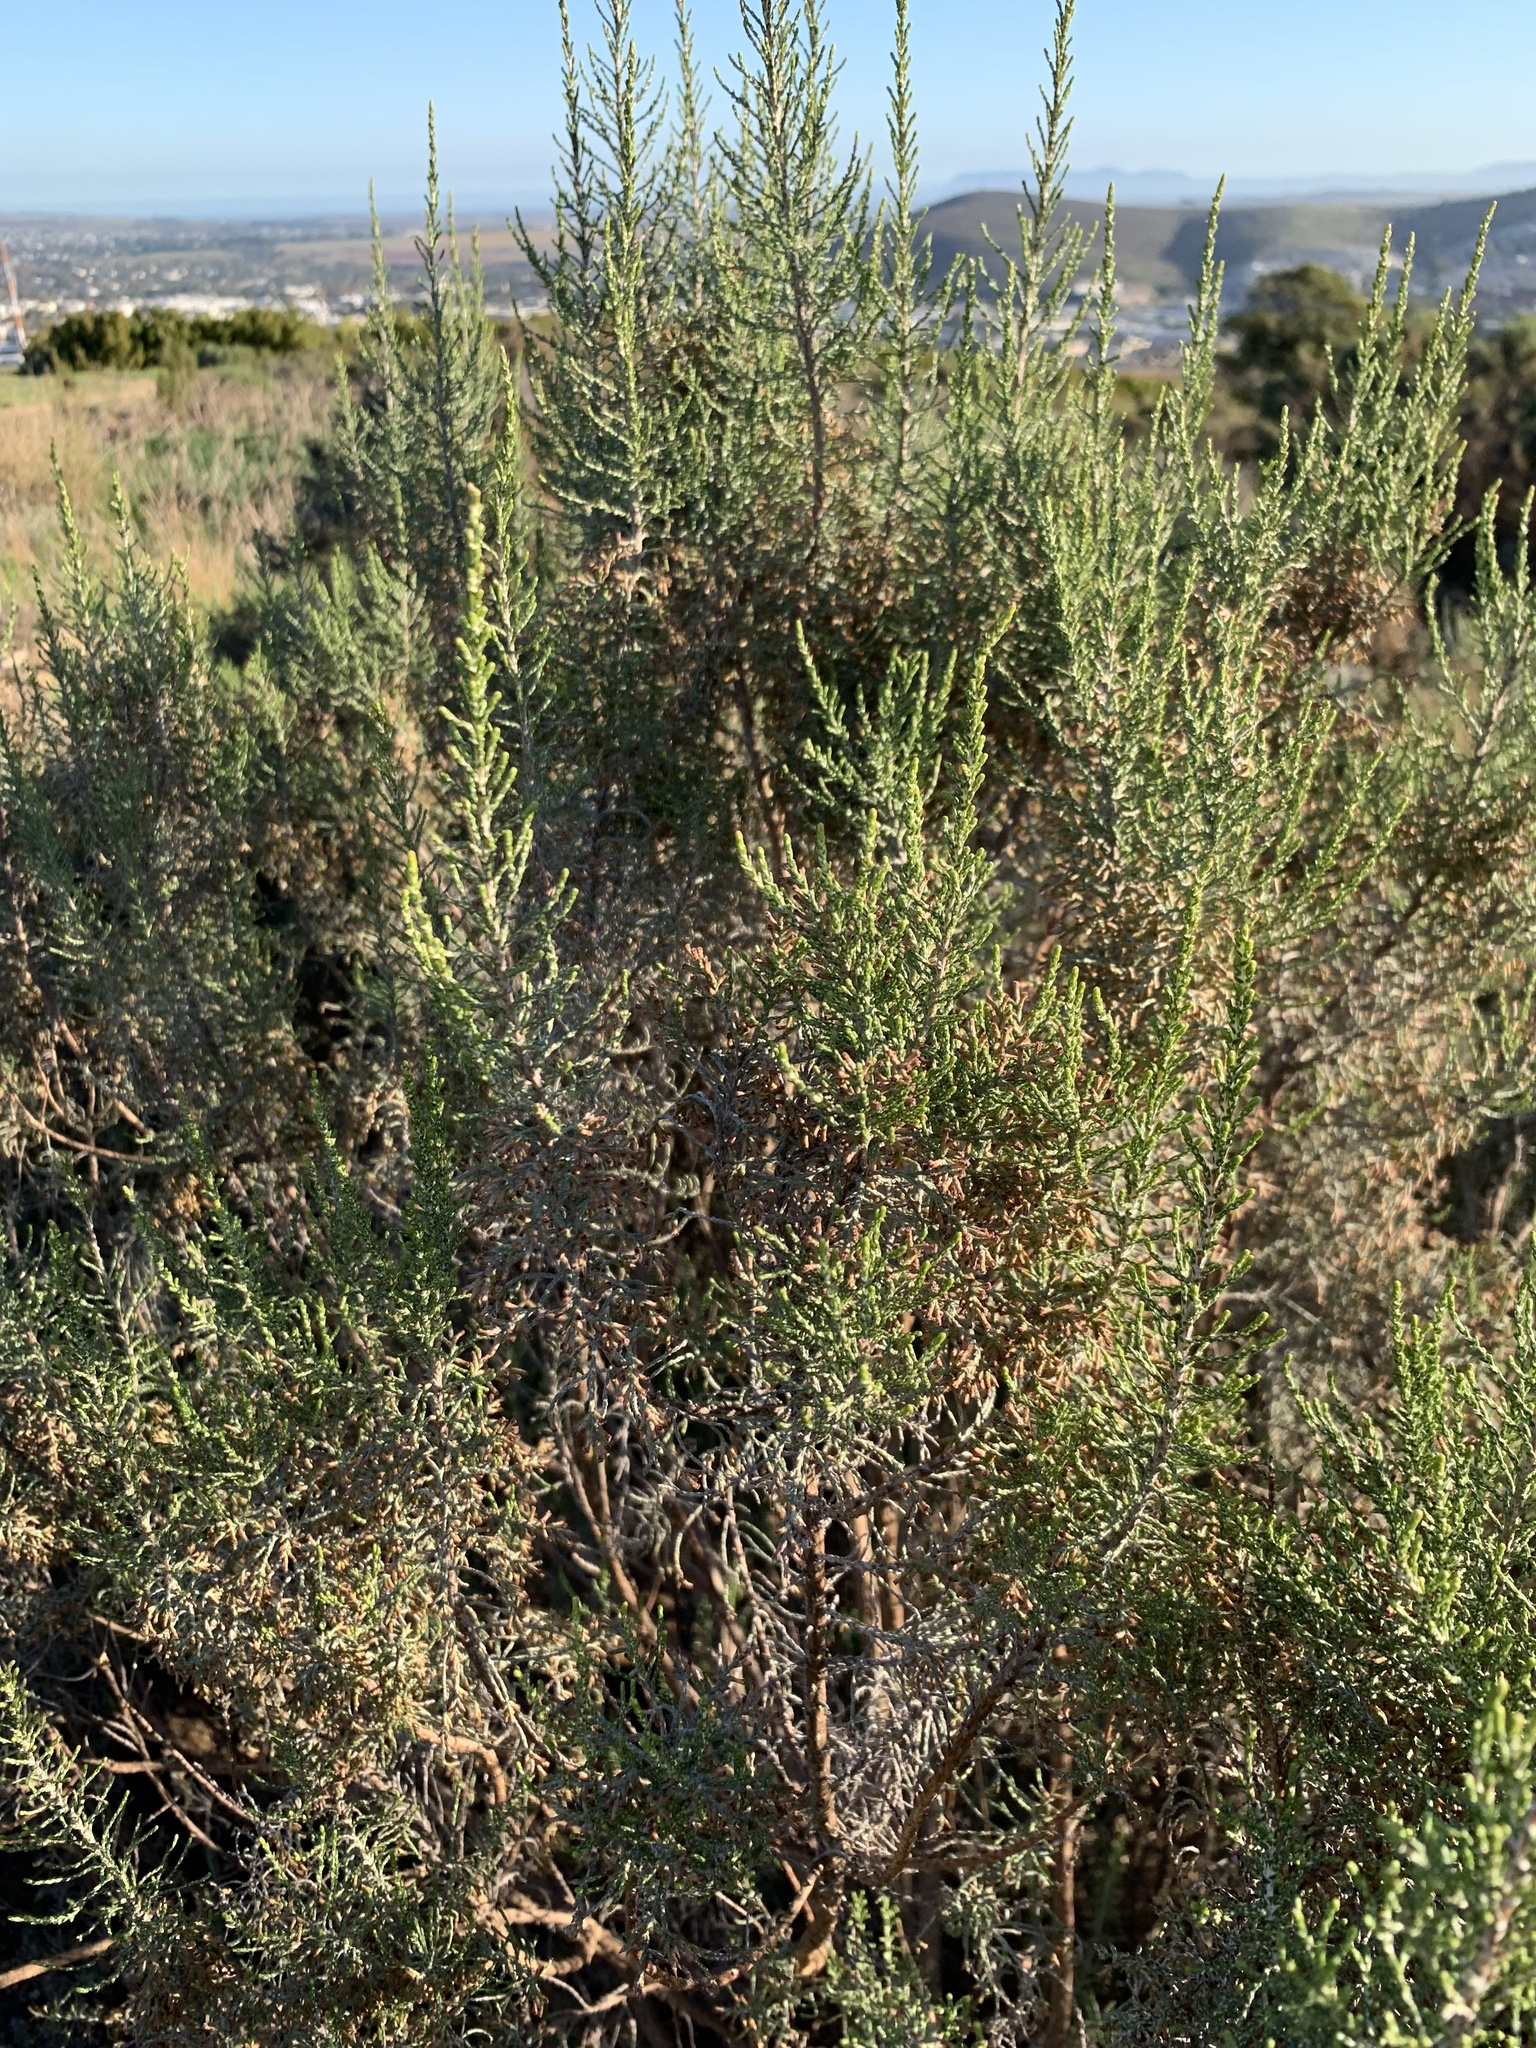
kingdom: Plantae
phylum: Tracheophyta
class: Magnoliopsida
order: Asterales
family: Asteraceae
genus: Dicerothamnus
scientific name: Dicerothamnus rhinocerotis
